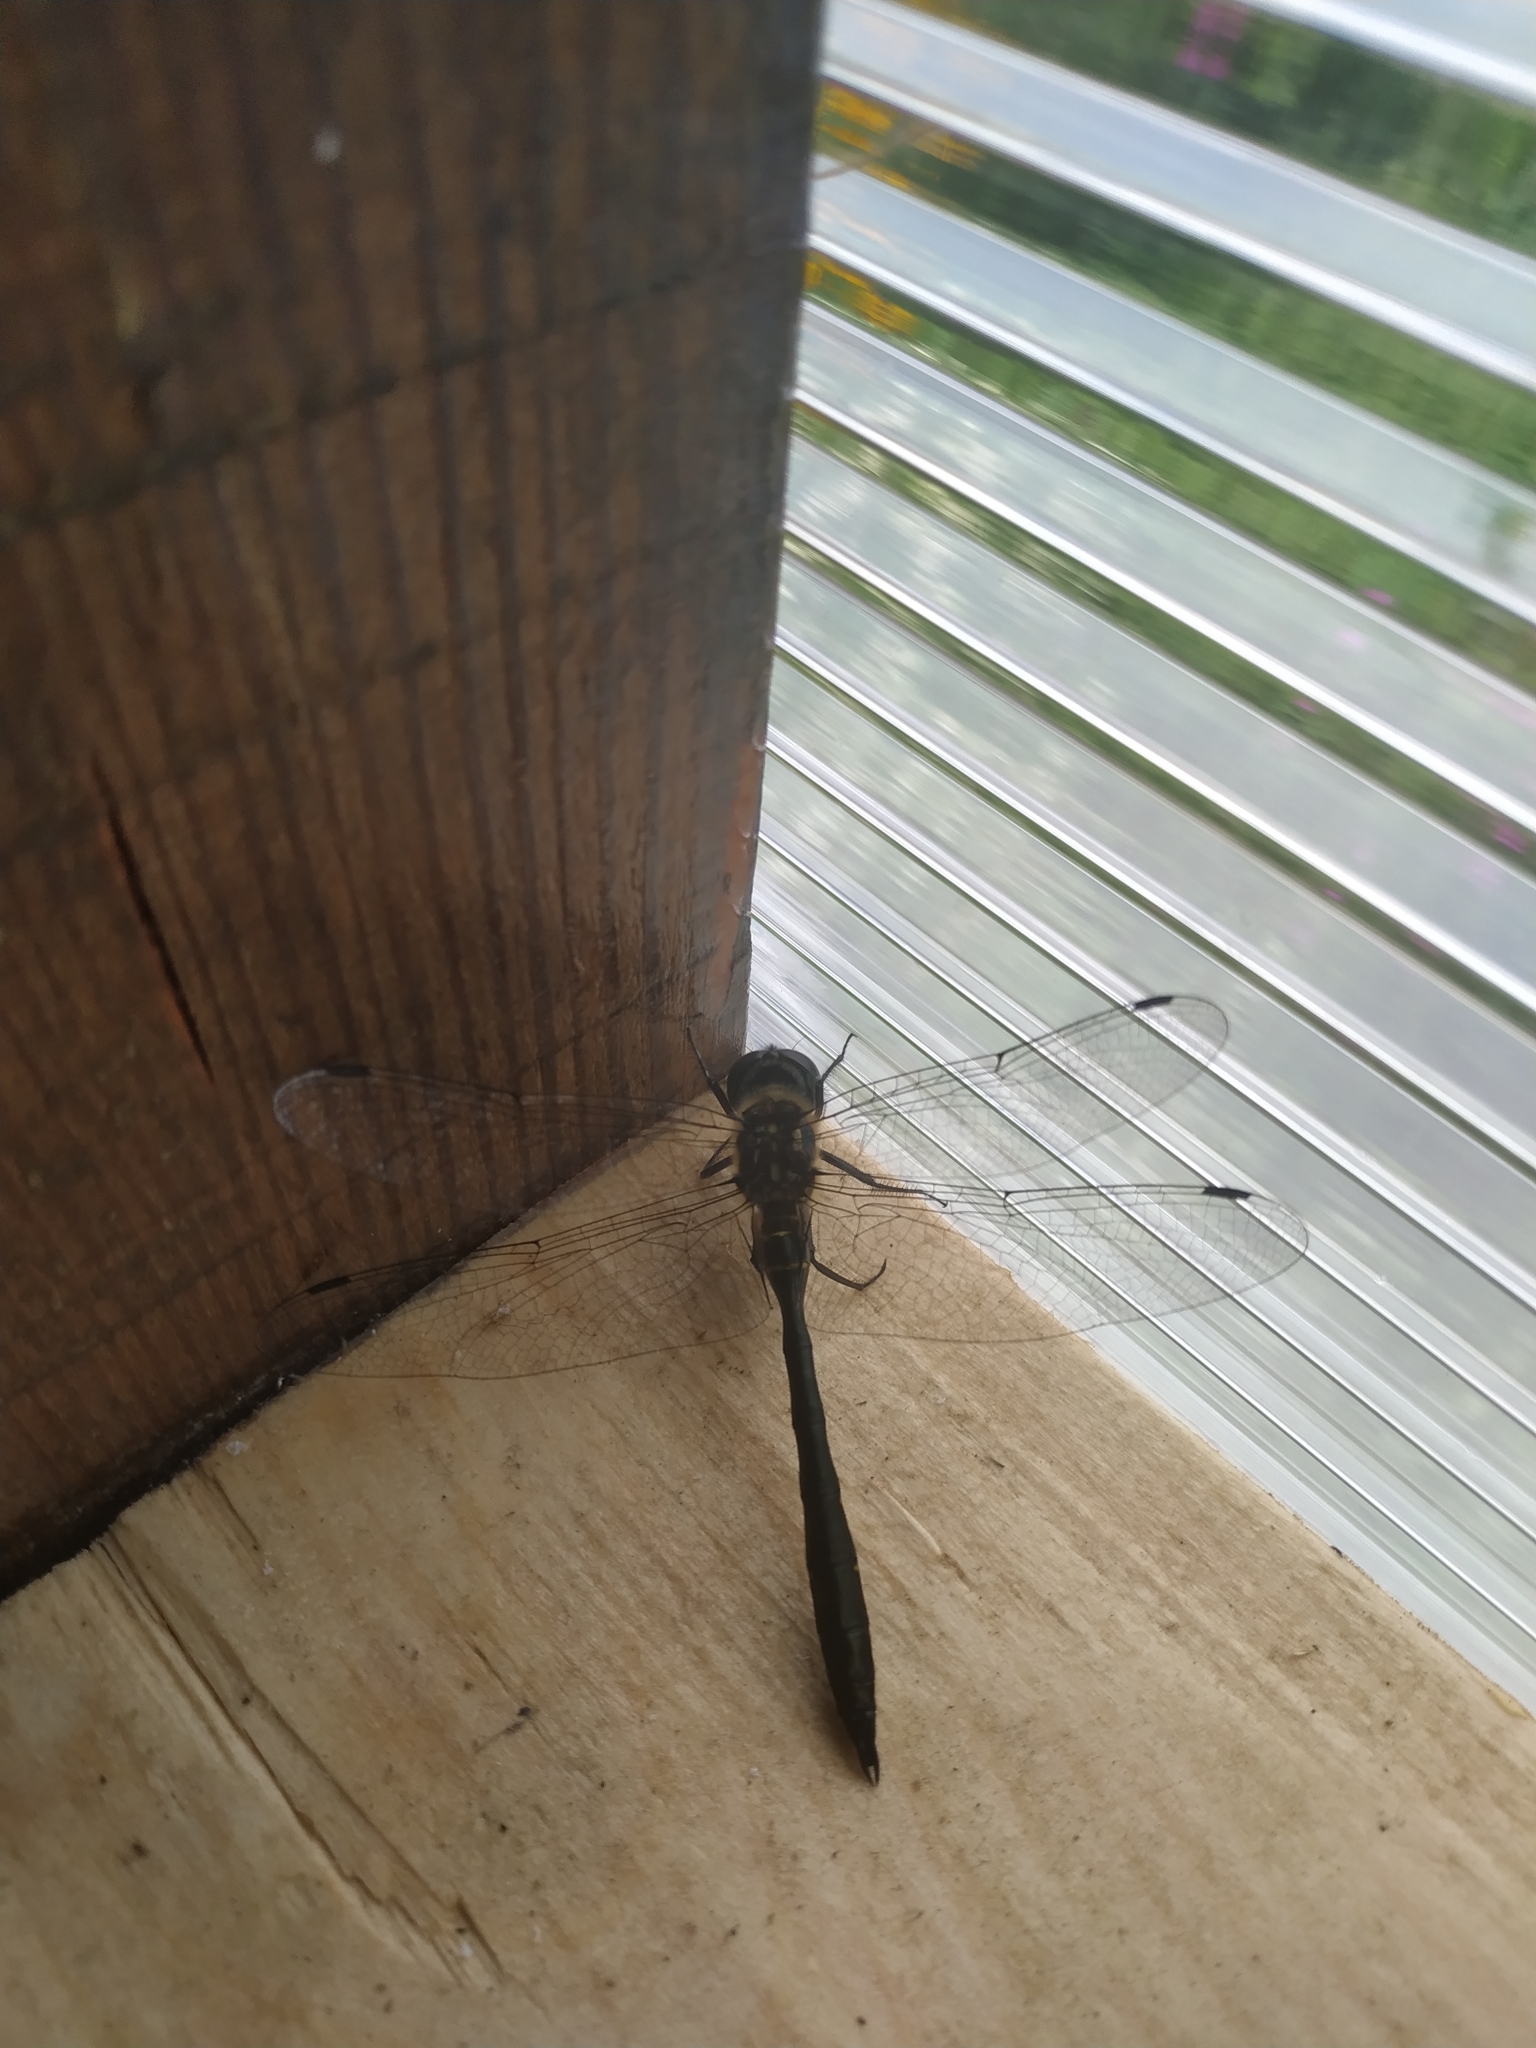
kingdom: Animalia
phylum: Arthropoda
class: Insecta
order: Odonata
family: Corduliidae
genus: Somatochlora
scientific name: Somatochlora viridiaenea
